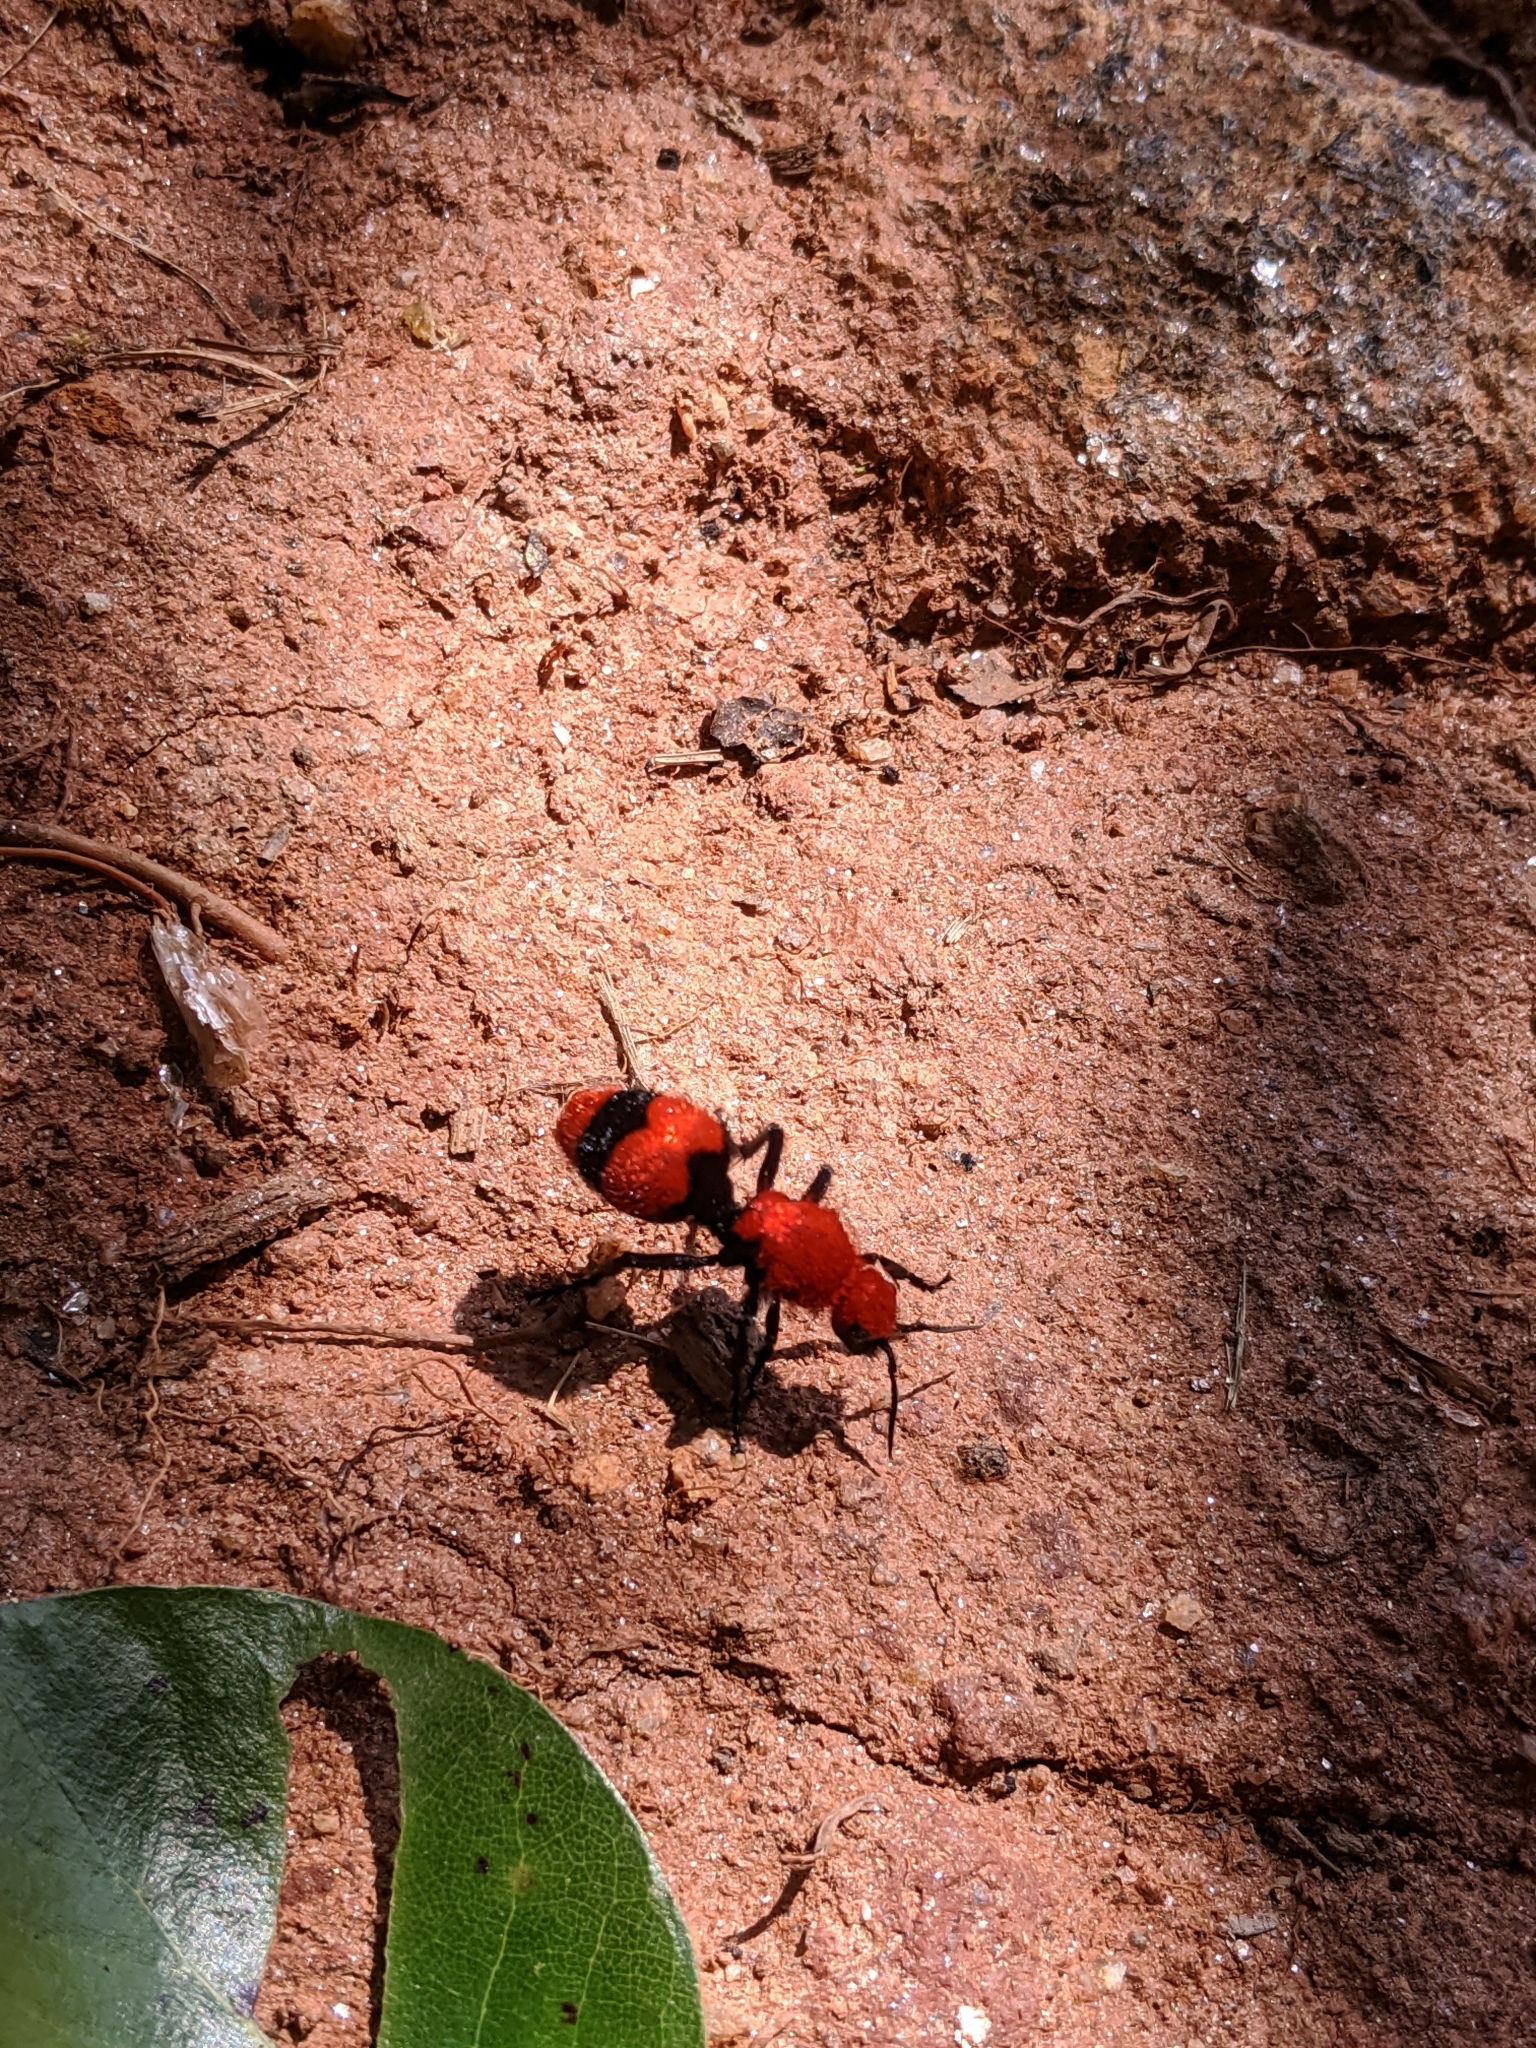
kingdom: Animalia
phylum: Arthropoda
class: Insecta
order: Hymenoptera
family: Mutillidae
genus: Dasymutilla
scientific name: Dasymutilla occidentalis
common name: Common eastern velvet ant
